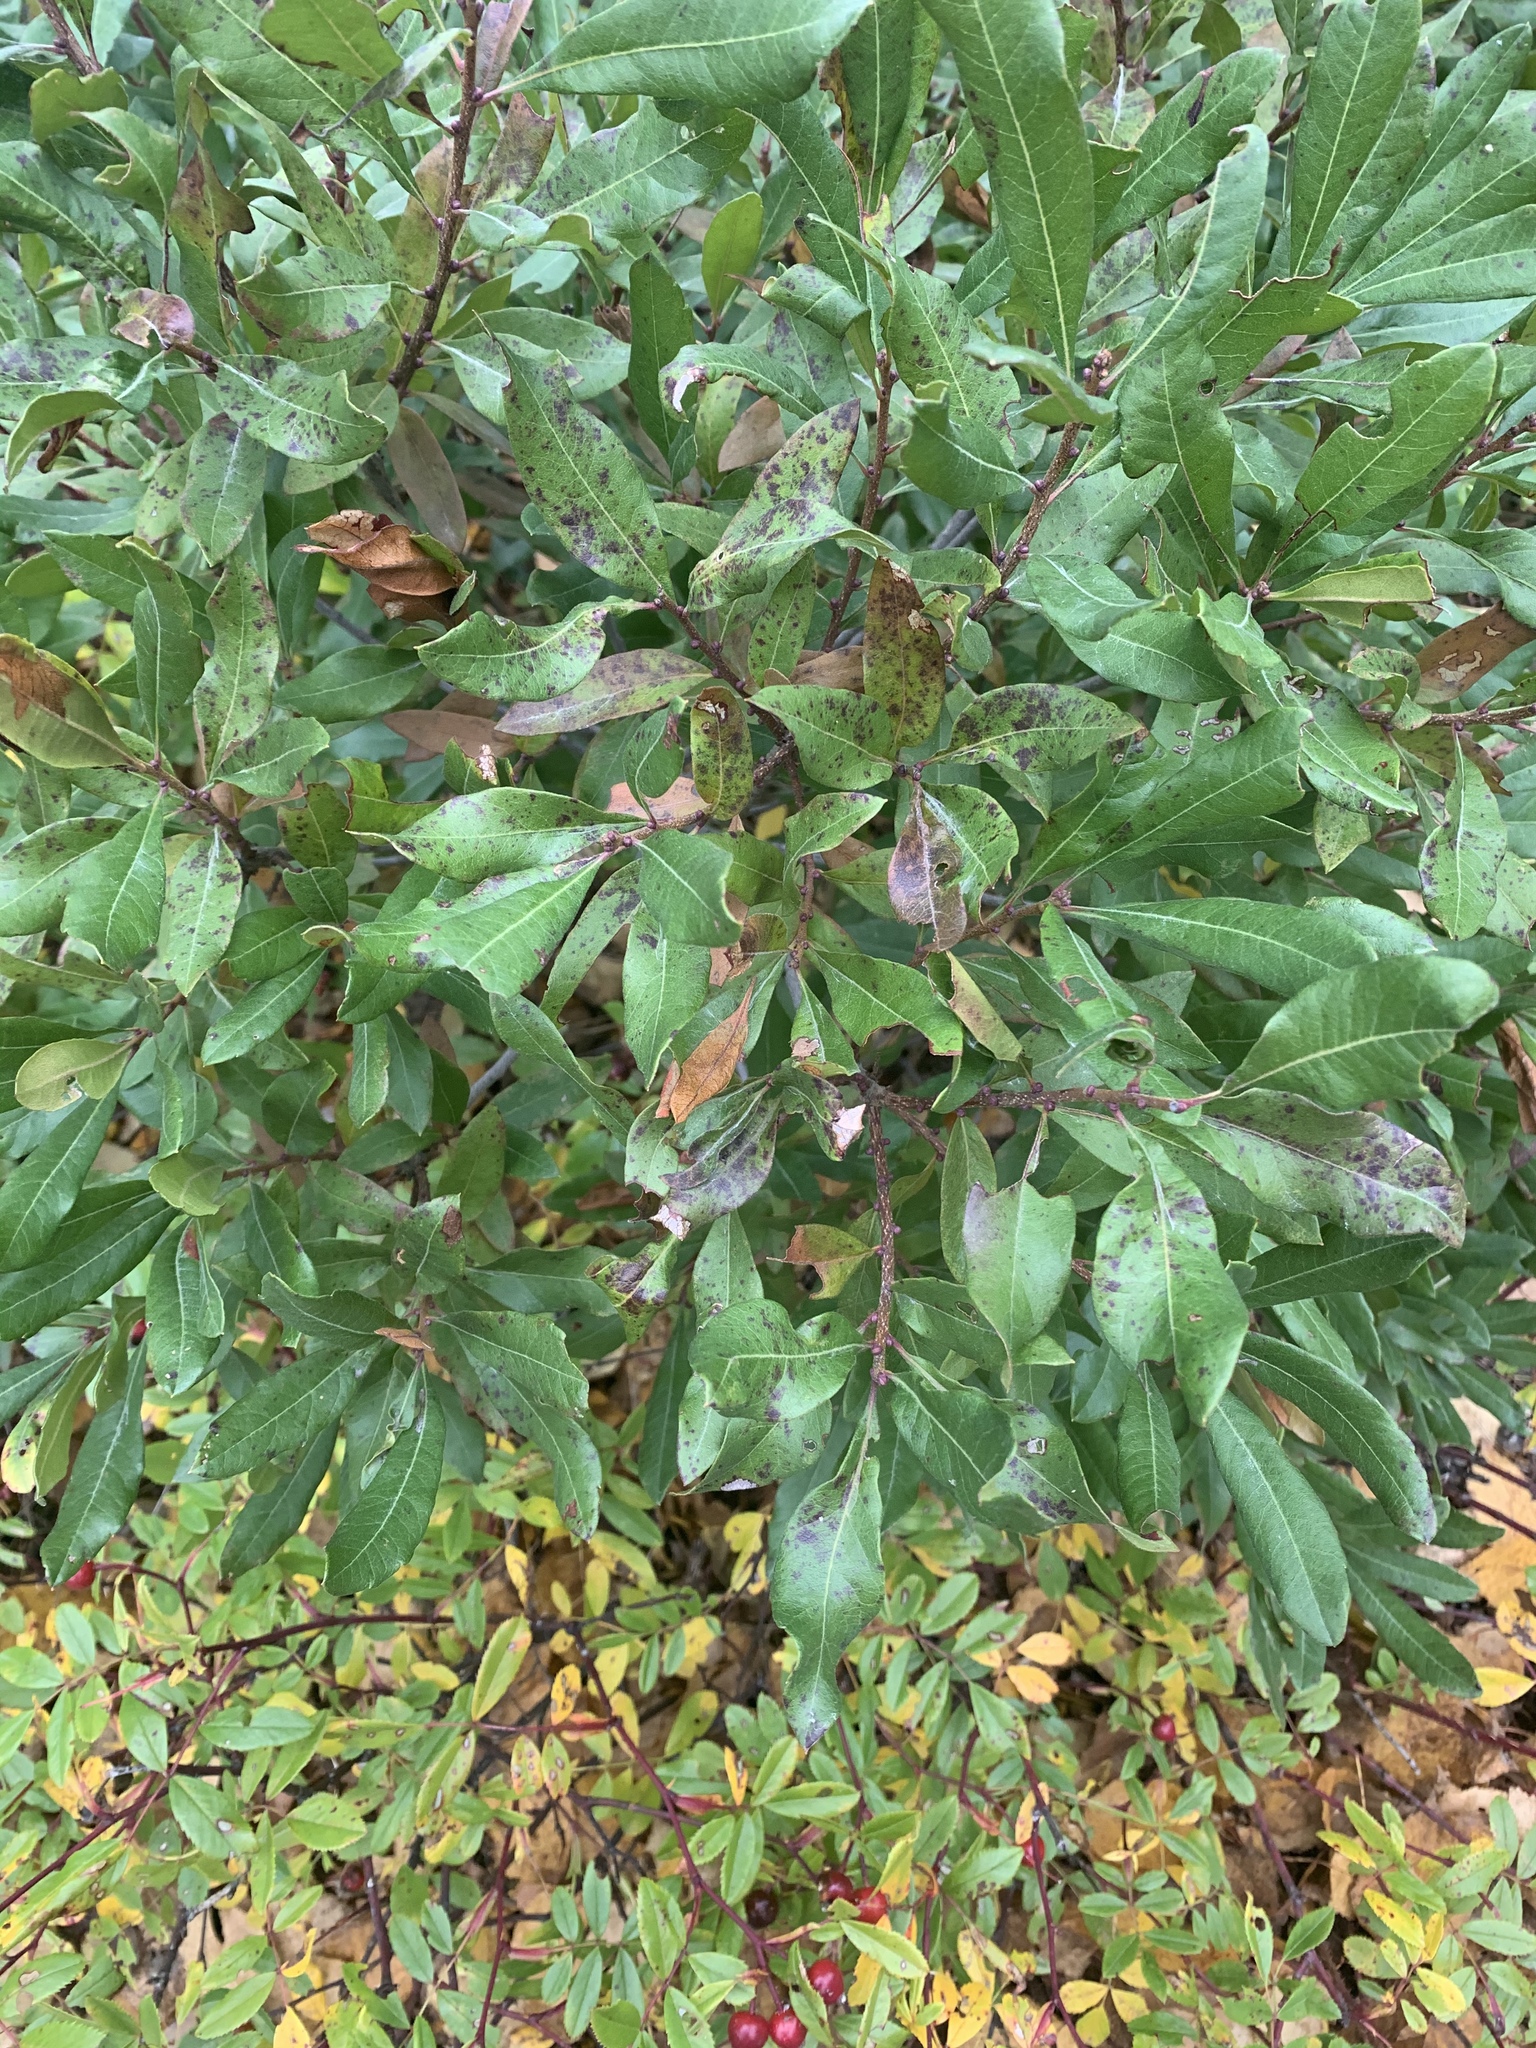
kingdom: Plantae
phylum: Tracheophyta
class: Magnoliopsida
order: Fagales
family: Myricaceae
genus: Morella
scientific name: Morella pensylvanica
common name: Northern bayberry
